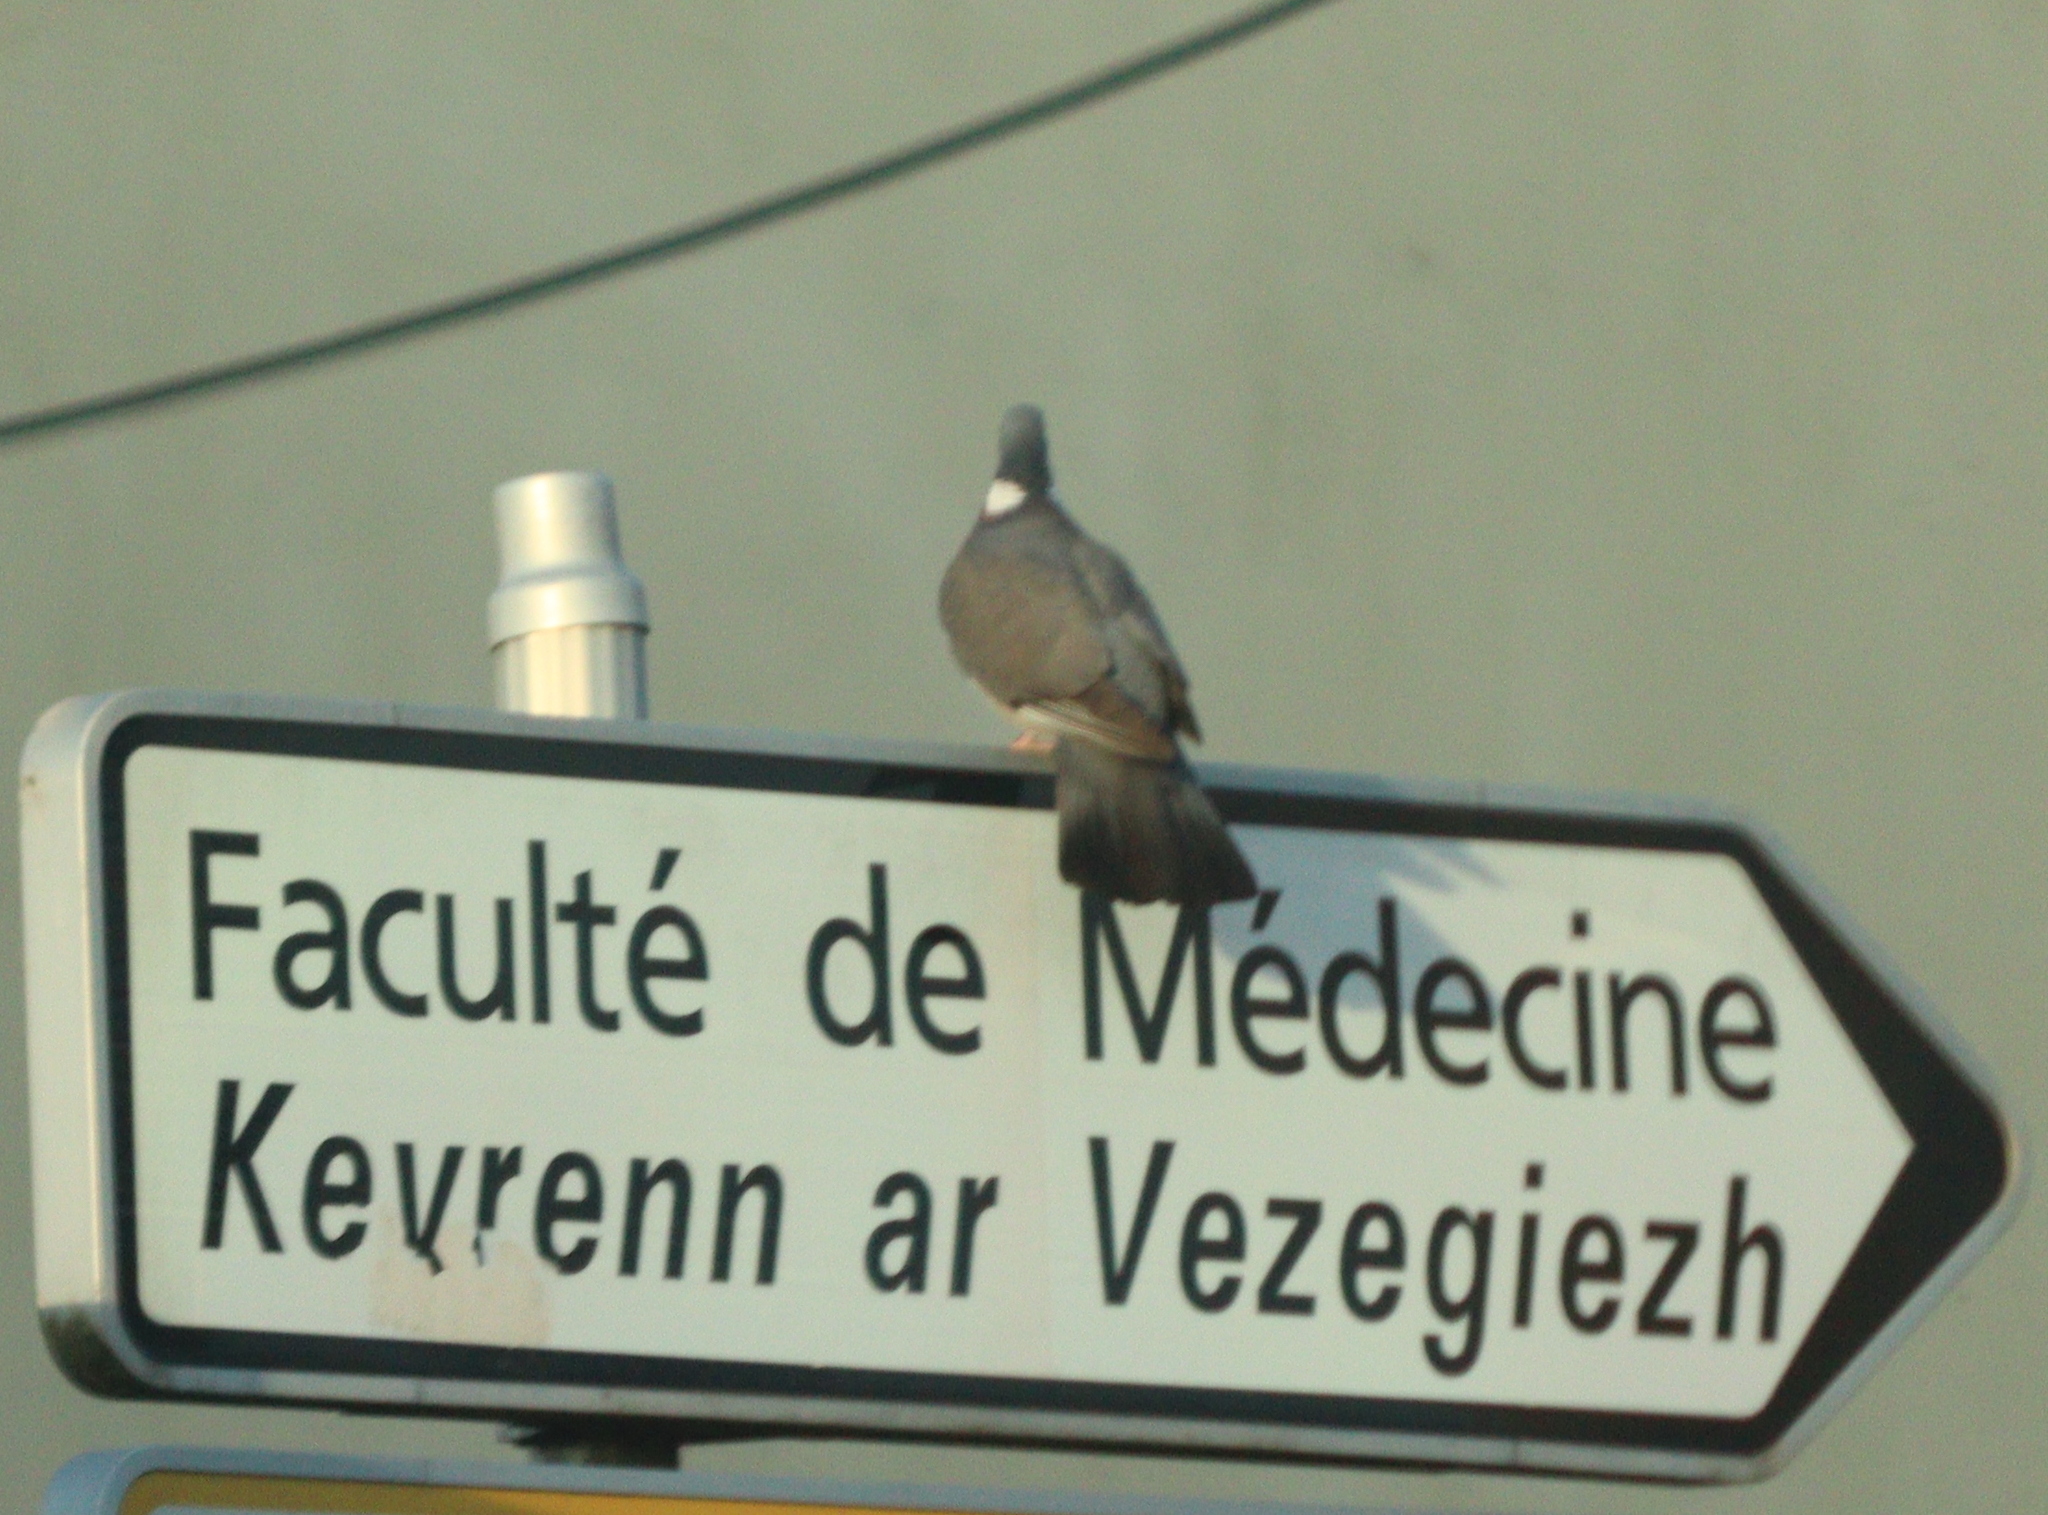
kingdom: Animalia
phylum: Chordata
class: Aves
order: Columbiformes
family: Columbidae
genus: Columba
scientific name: Columba palumbus
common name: Common wood pigeon
